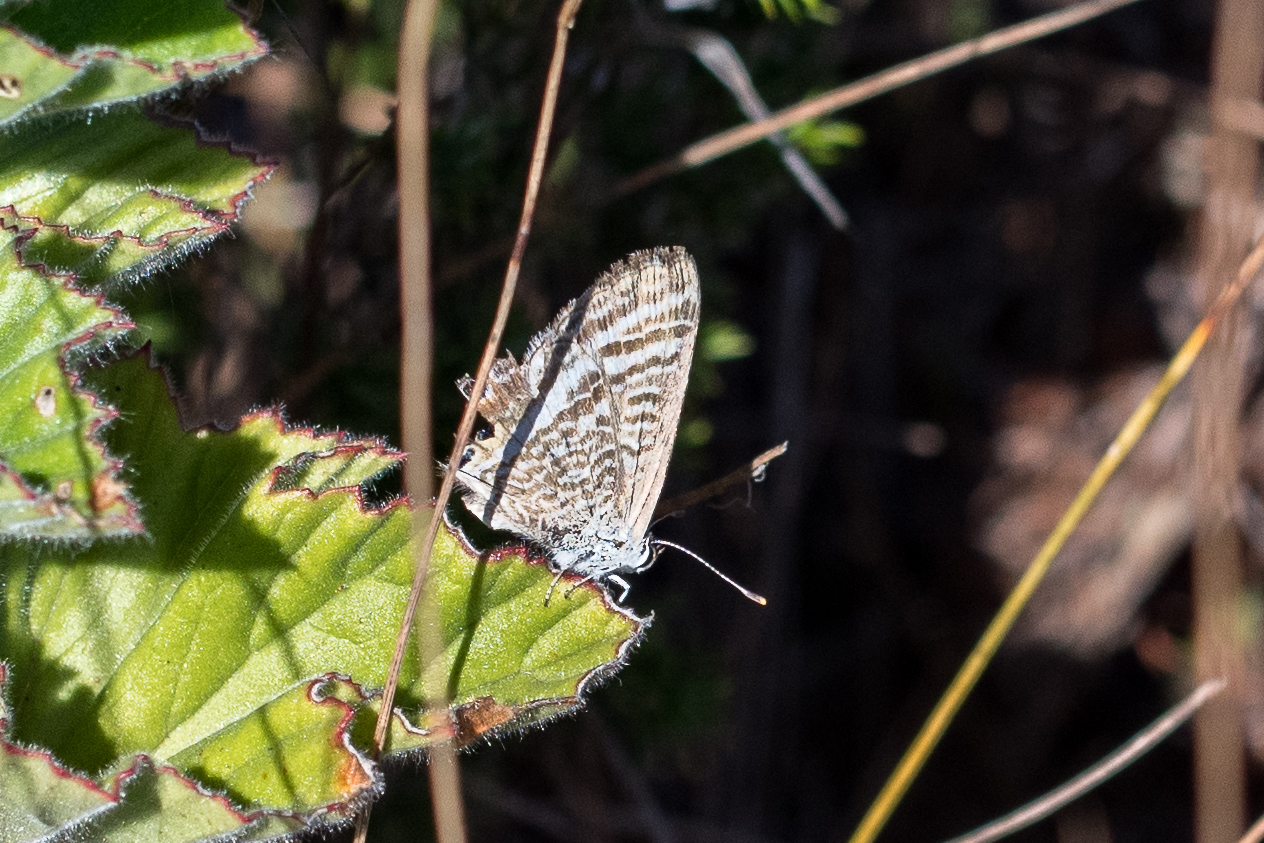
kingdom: Animalia
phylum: Arthropoda
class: Insecta
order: Lepidoptera
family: Lycaenidae
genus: Lampides
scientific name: Lampides boeticus
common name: Long-tailed blue
